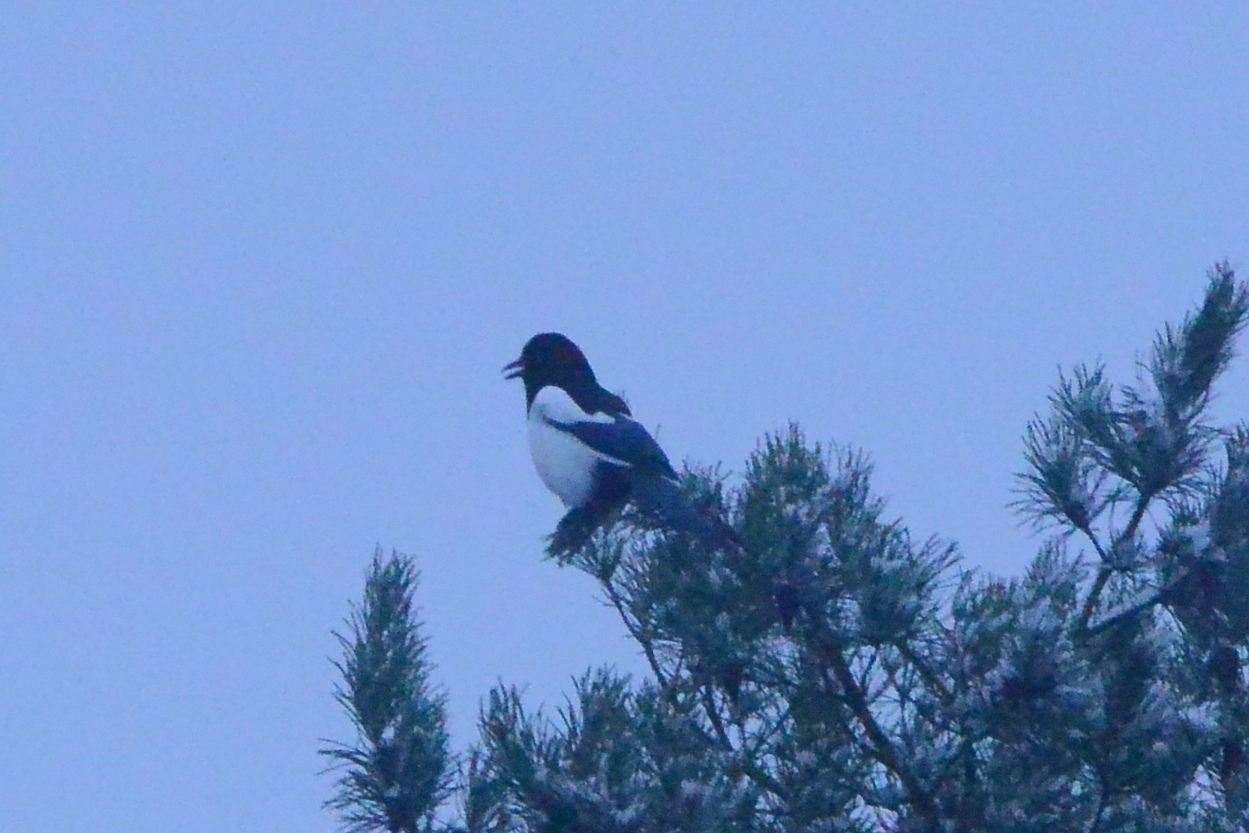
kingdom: Animalia
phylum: Chordata
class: Aves
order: Passeriformes
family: Corvidae
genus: Pica
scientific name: Pica pica
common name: Eurasian magpie
